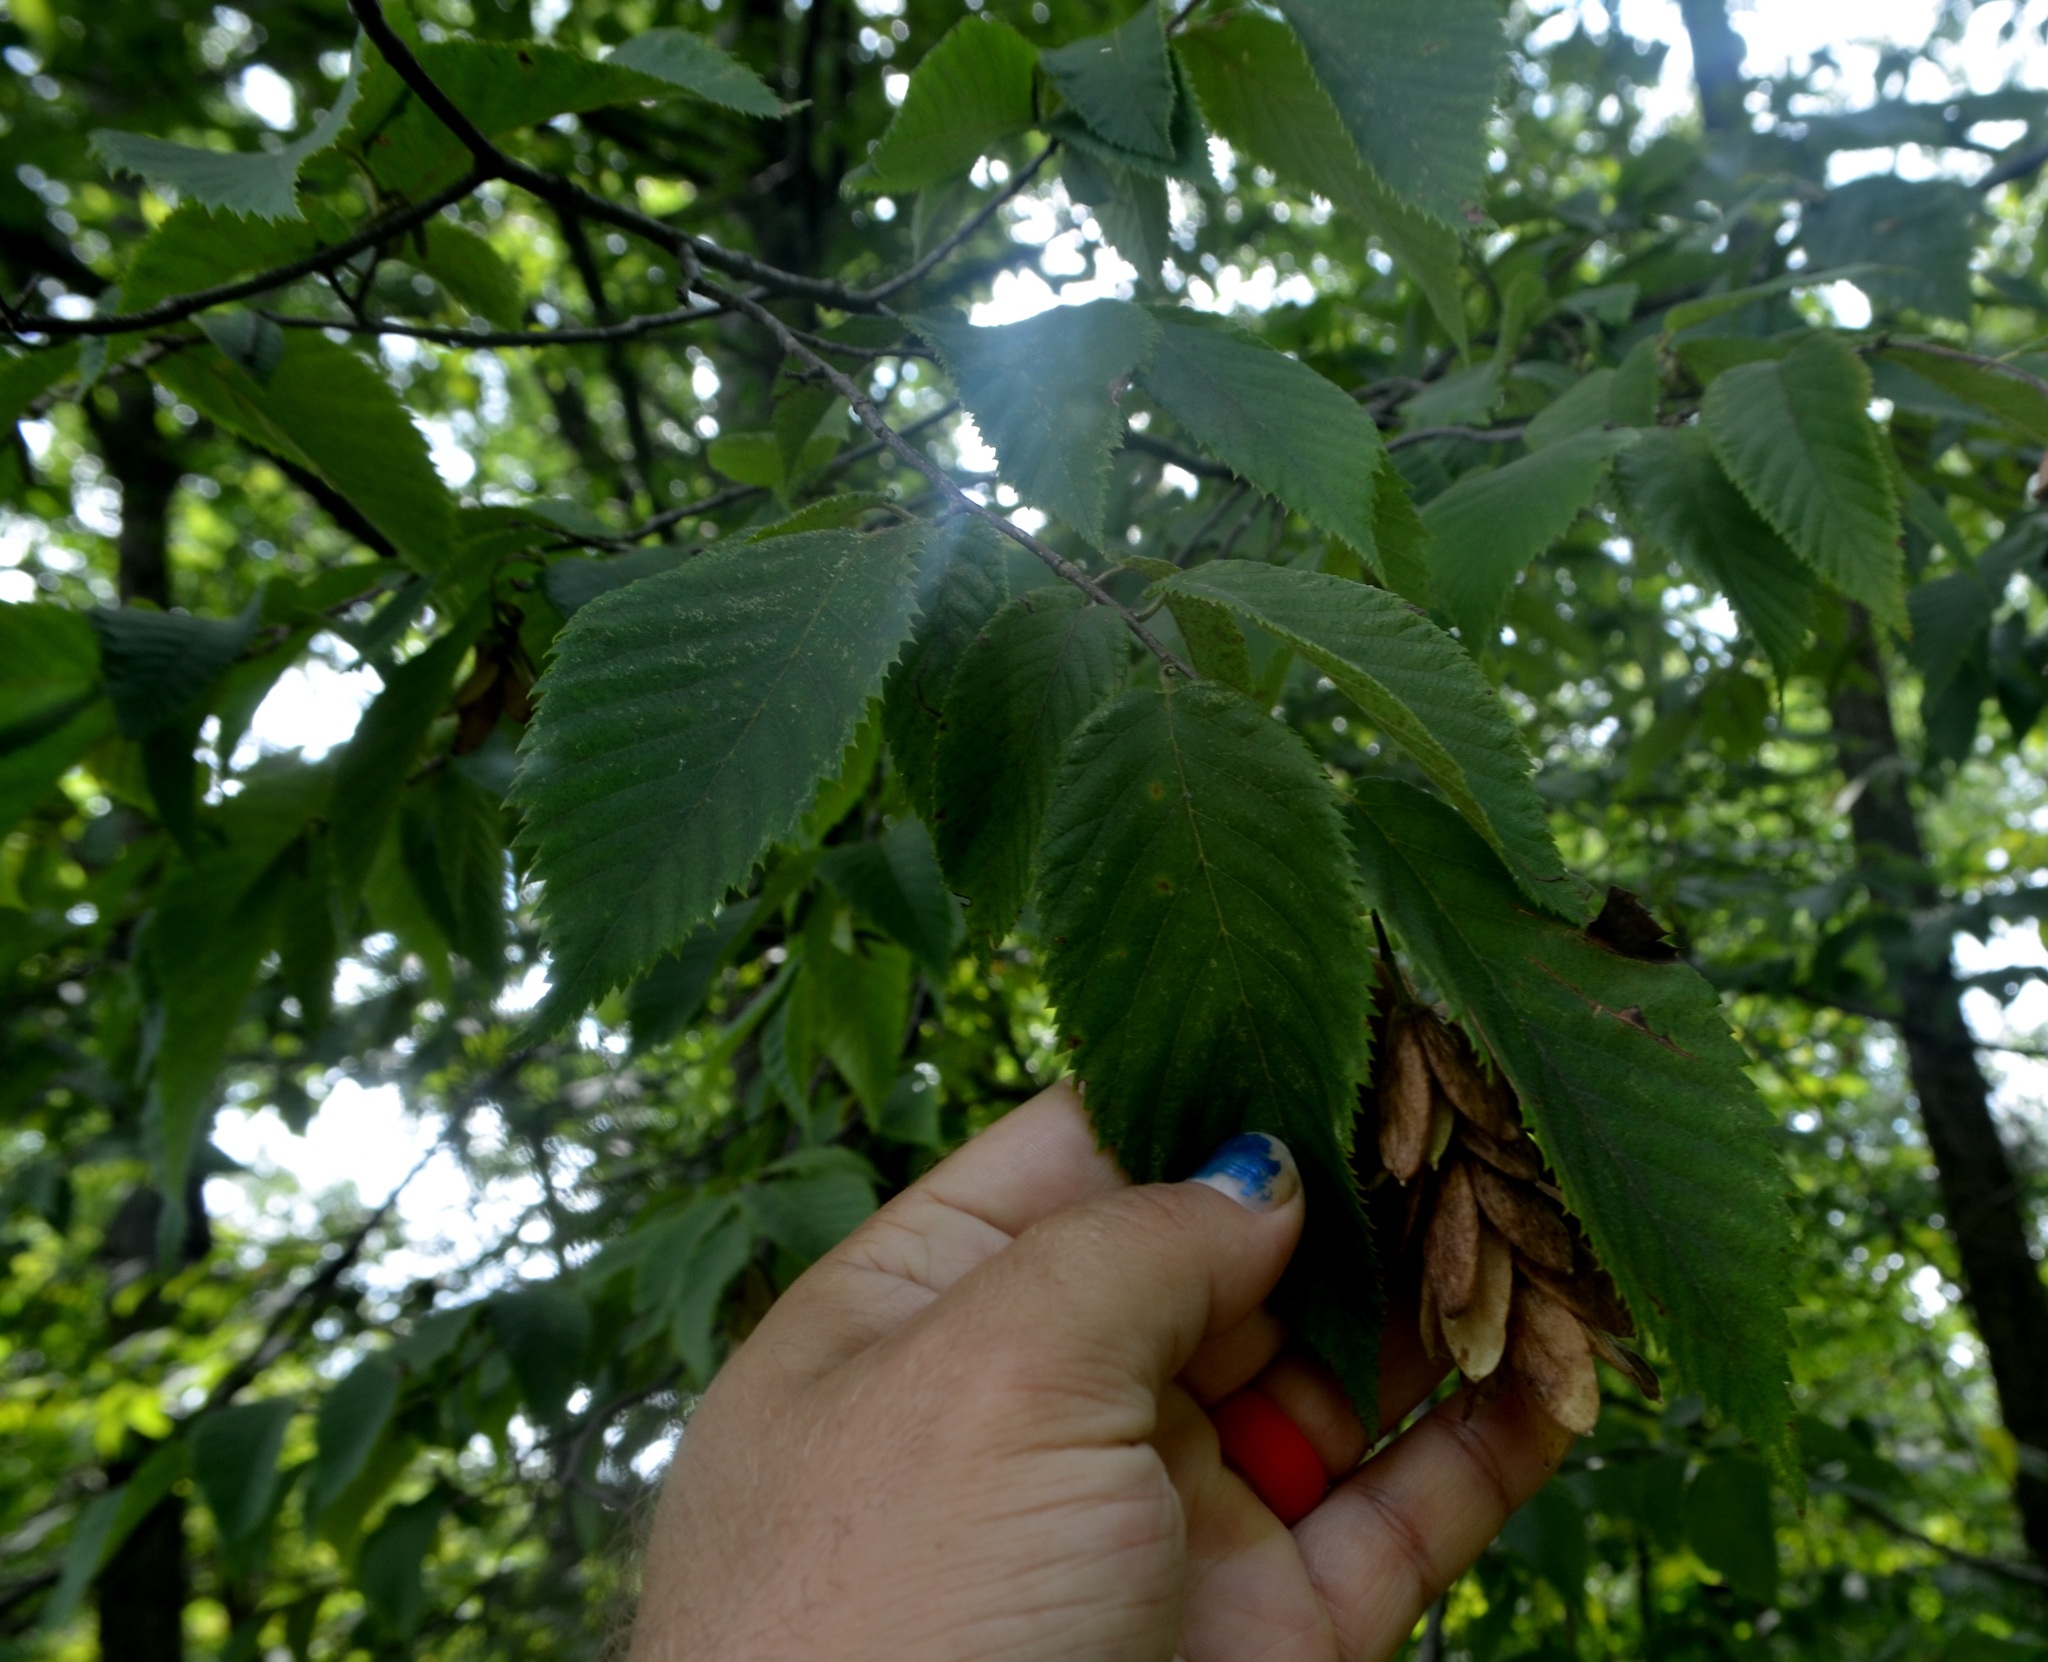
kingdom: Plantae
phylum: Tracheophyta
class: Magnoliopsida
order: Fagales
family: Betulaceae
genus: Ostrya
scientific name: Ostrya virginiana
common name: Ironwood
